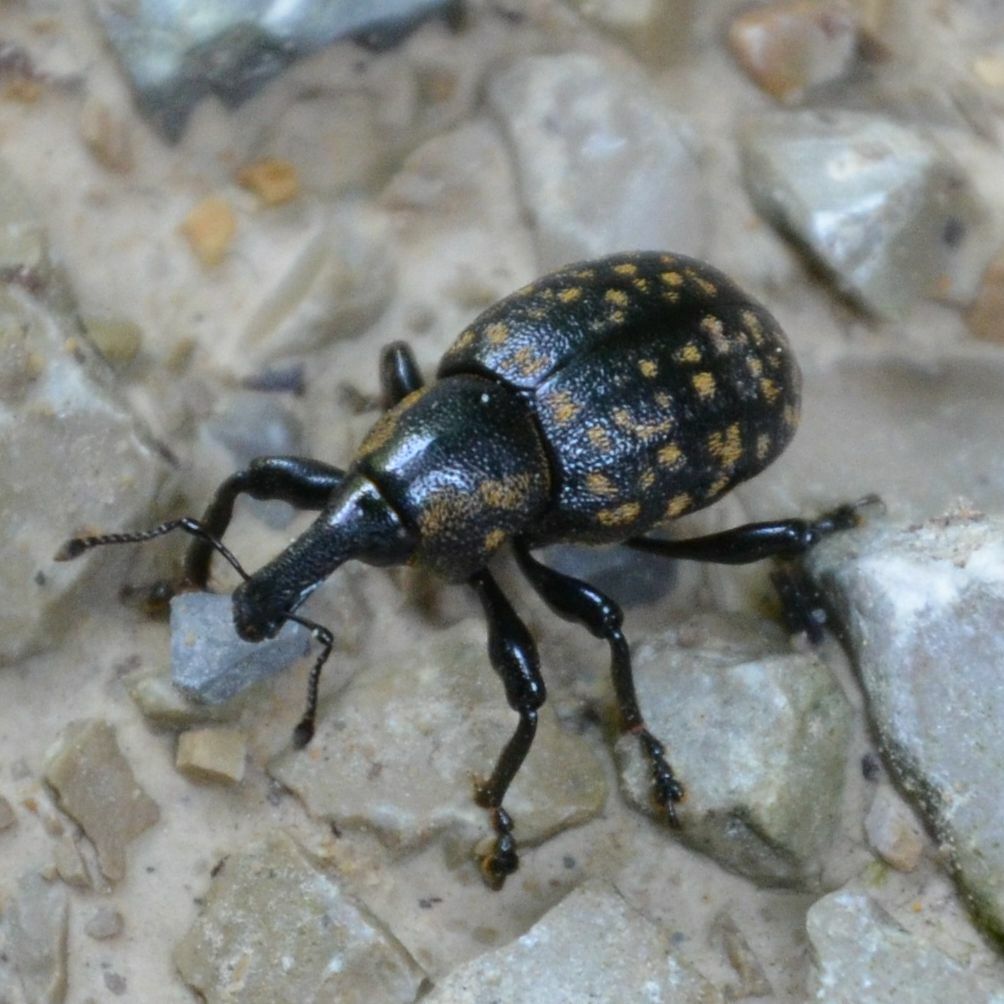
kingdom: Animalia
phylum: Arthropoda
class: Insecta
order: Coleoptera
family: Curculionidae
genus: Liparus
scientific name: Liparus germanus
